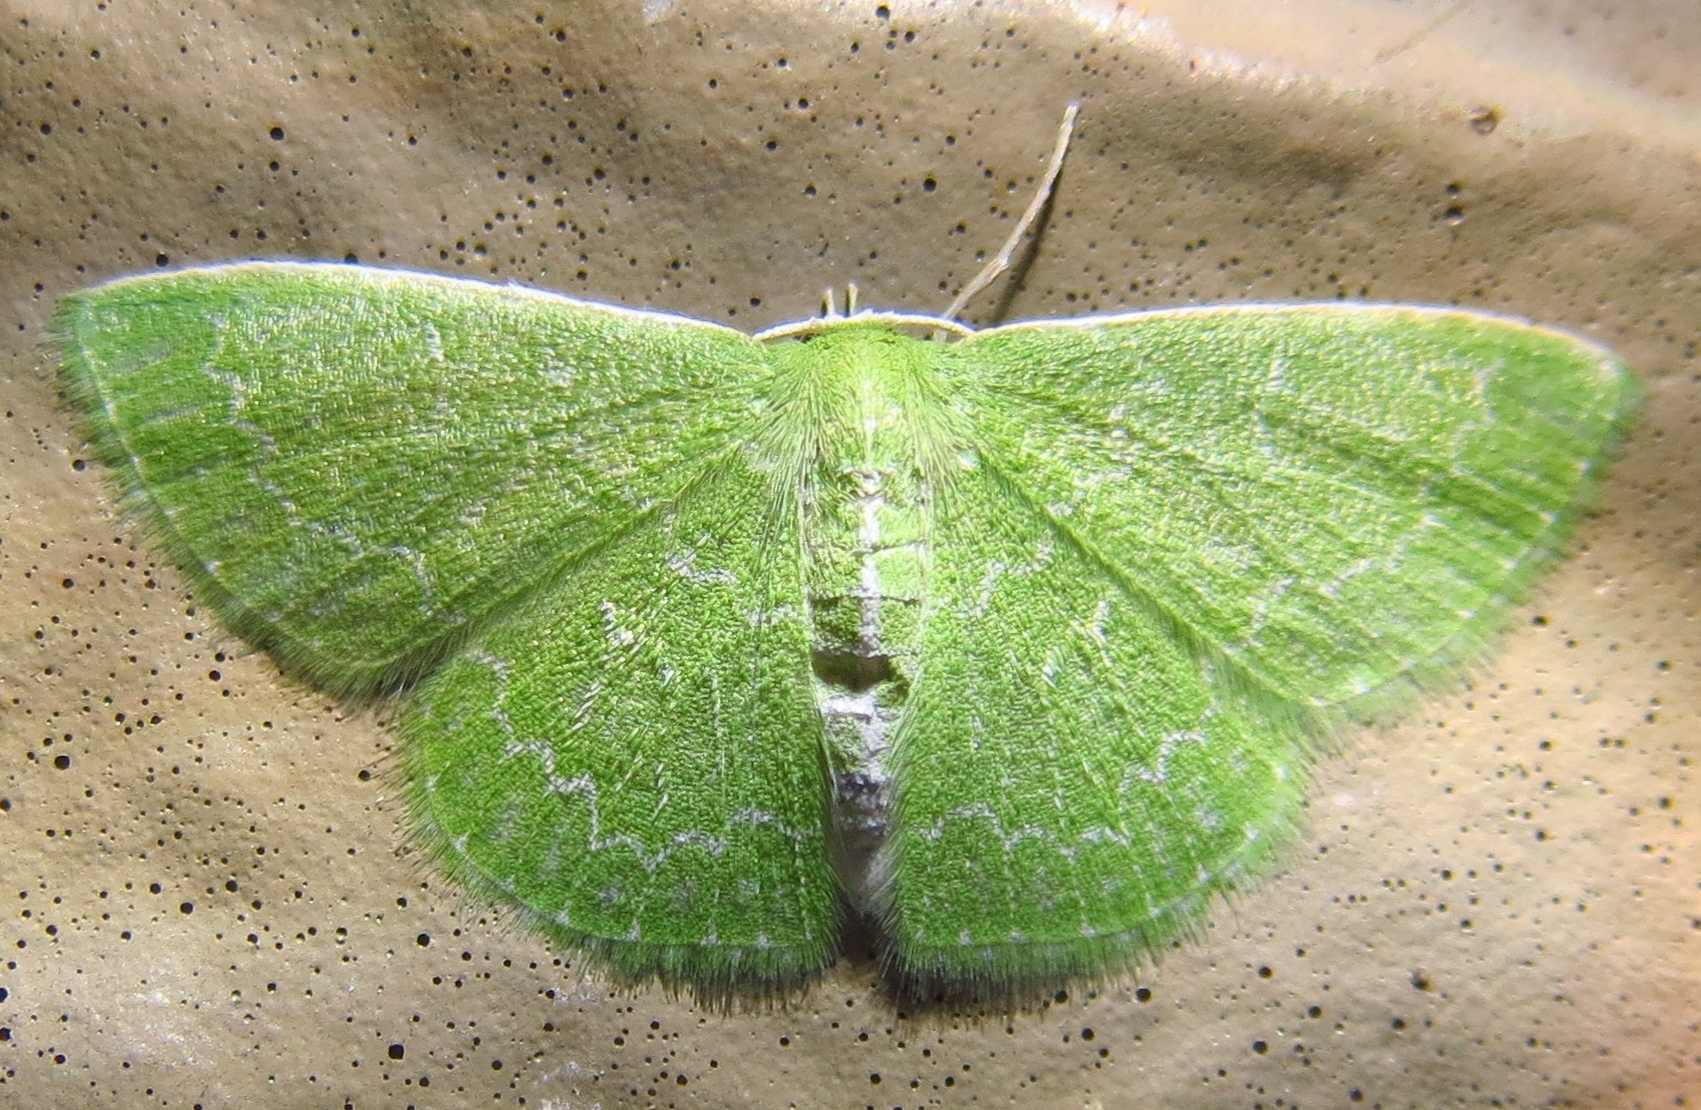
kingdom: Animalia
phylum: Arthropoda
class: Insecta
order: Lepidoptera
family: Geometridae
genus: Synchlora
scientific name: Synchlora frondaria
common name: Southern emerald
